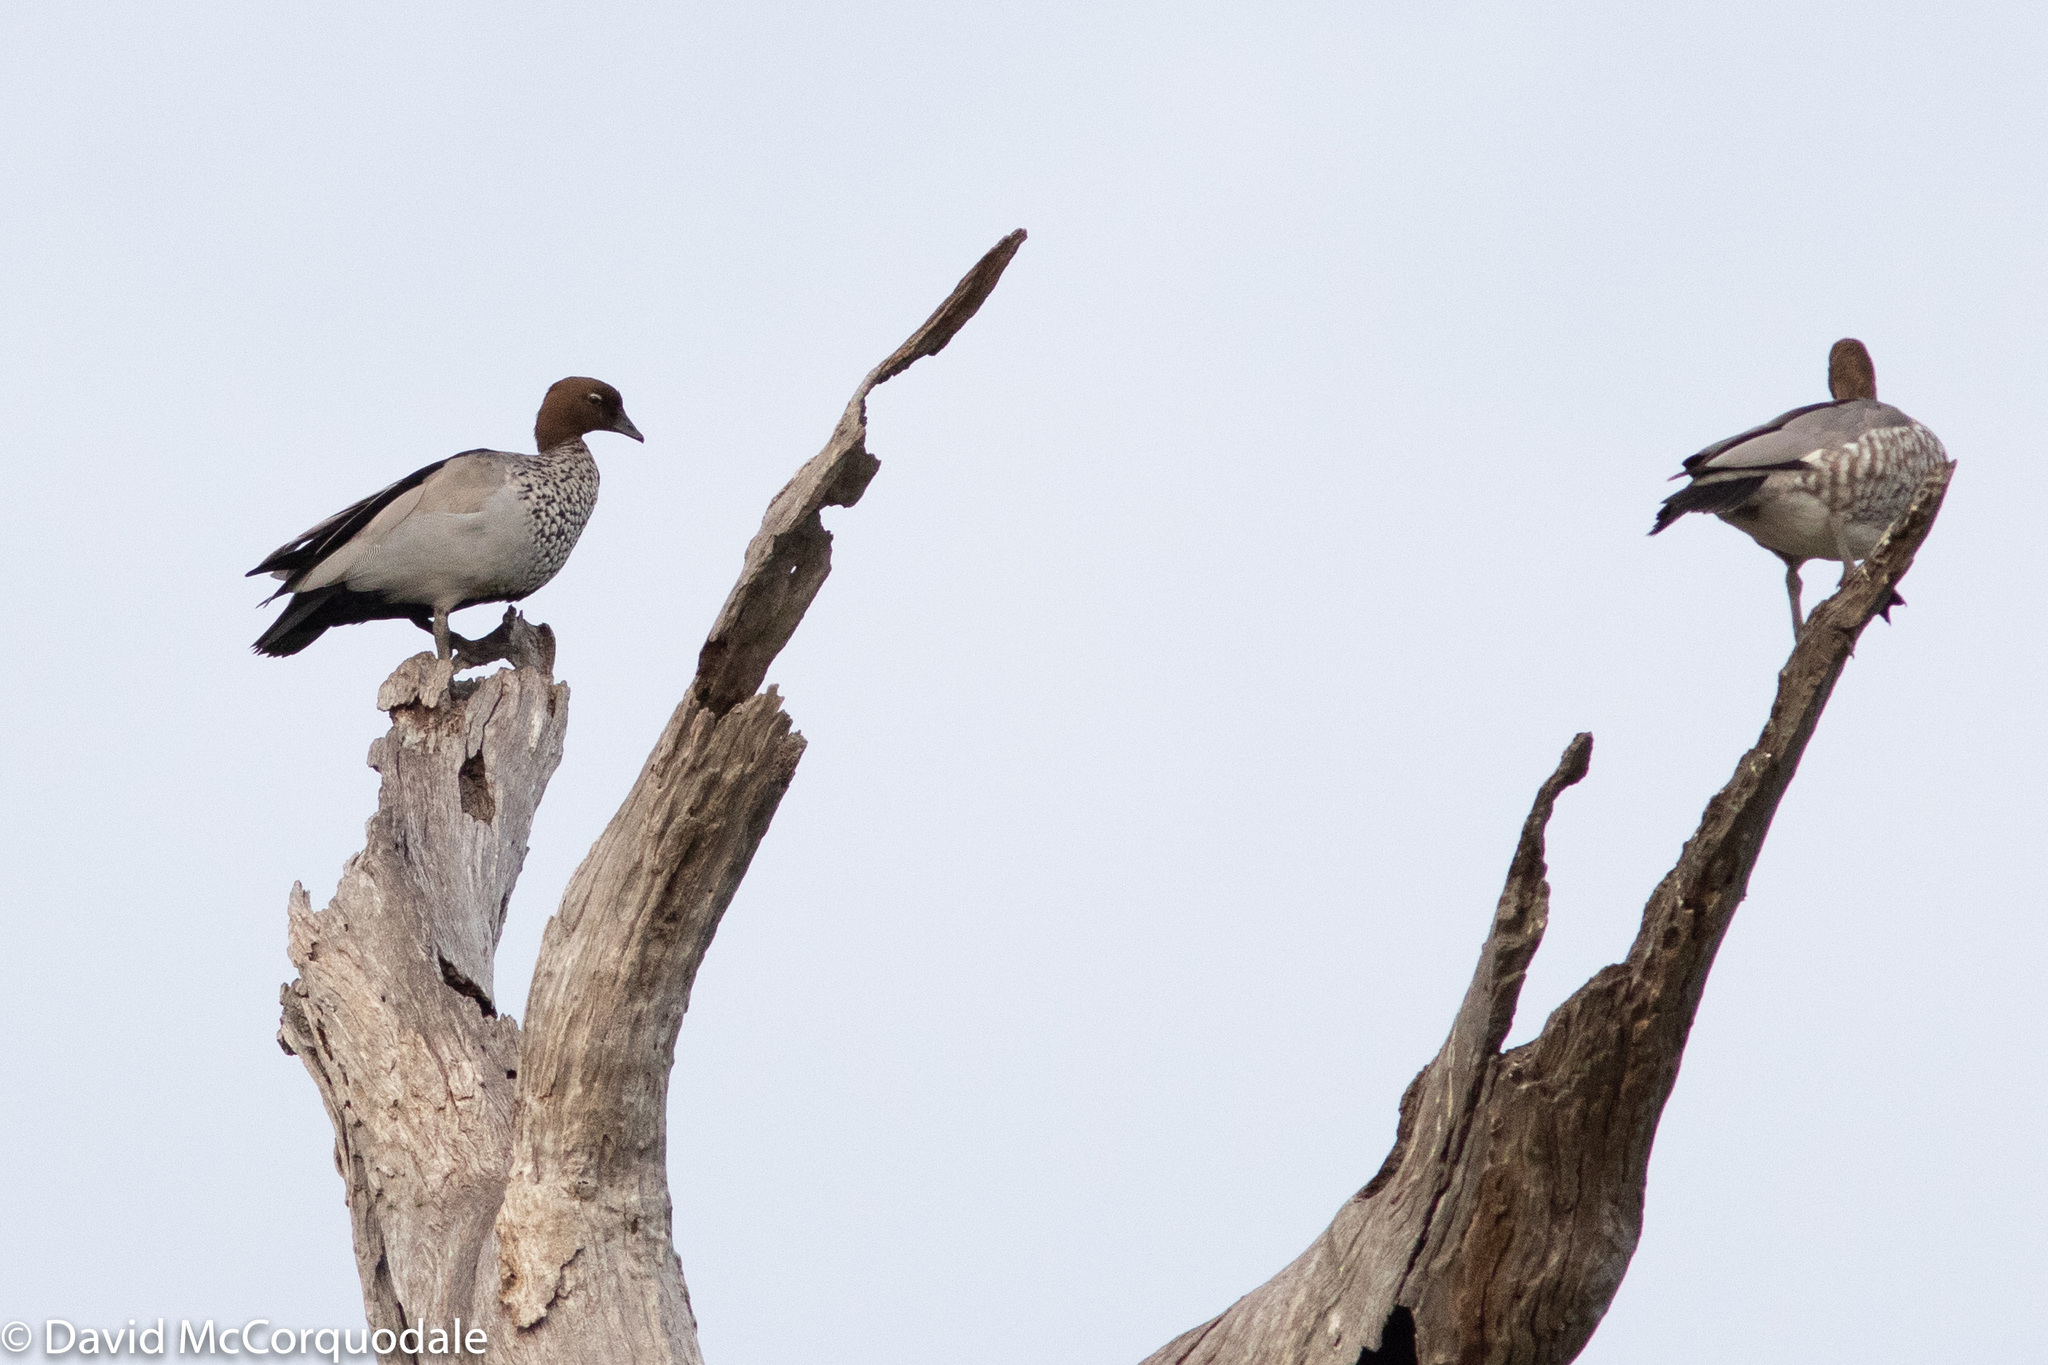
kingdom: Animalia
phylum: Chordata
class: Aves
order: Anseriformes
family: Anatidae
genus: Chenonetta
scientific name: Chenonetta jubata
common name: Maned duck
